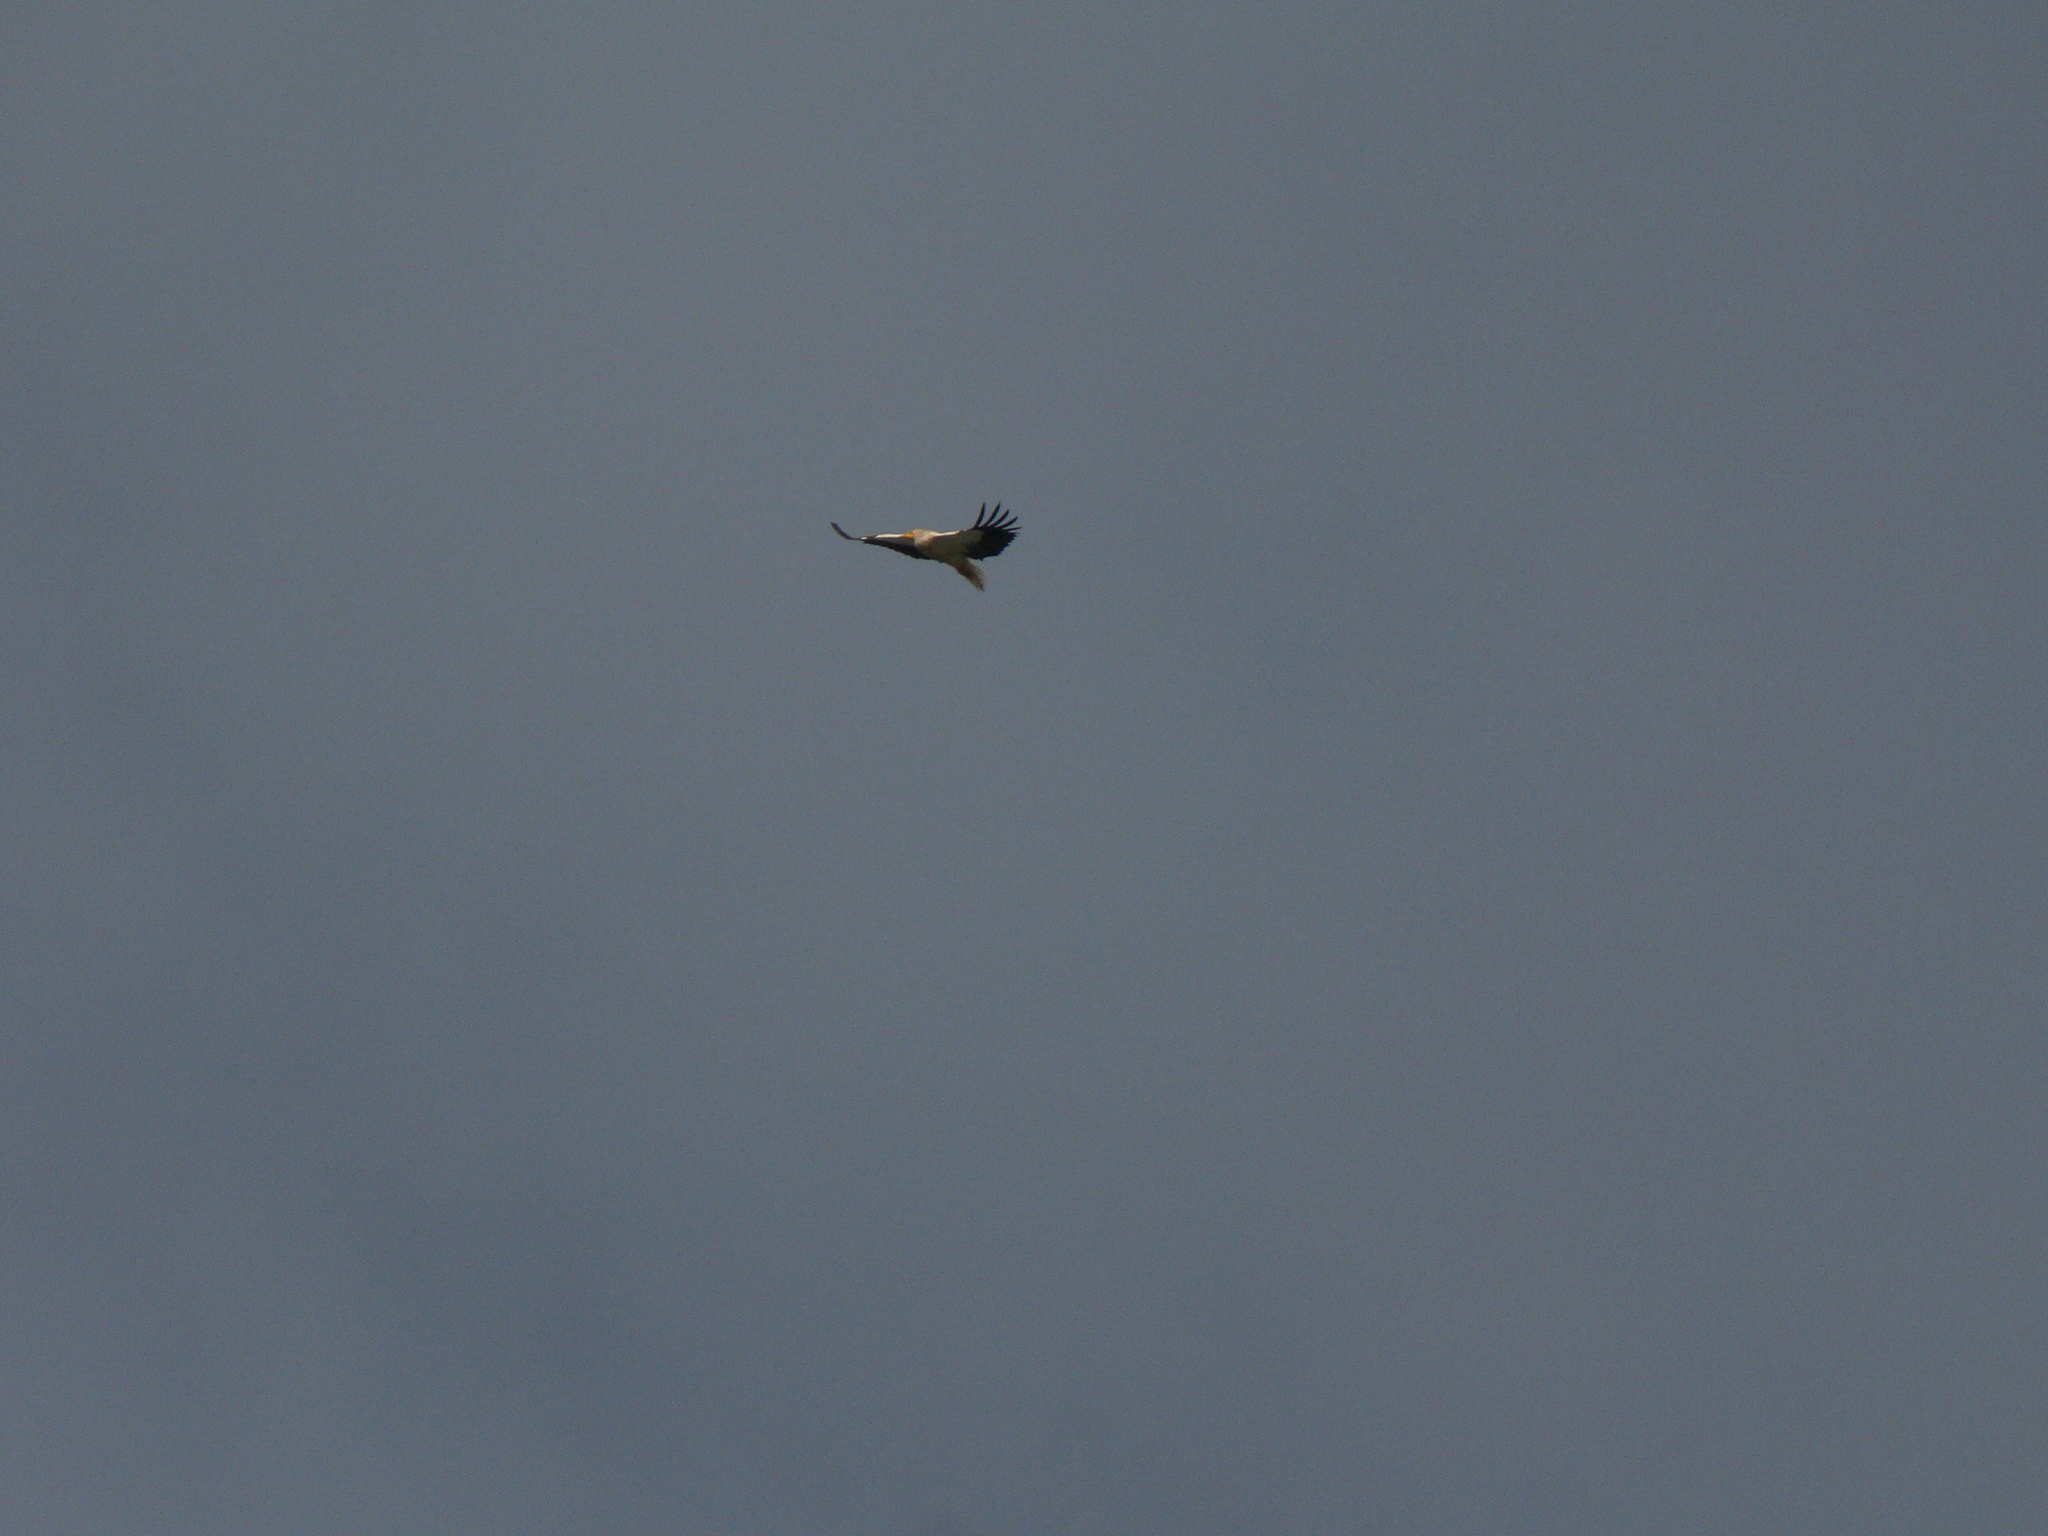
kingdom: Animalia
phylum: Chordata
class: Aves
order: Accipitriformes
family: Accipitridae
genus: Neophron
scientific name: Neophron percnopterus
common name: Egyptian vulture
